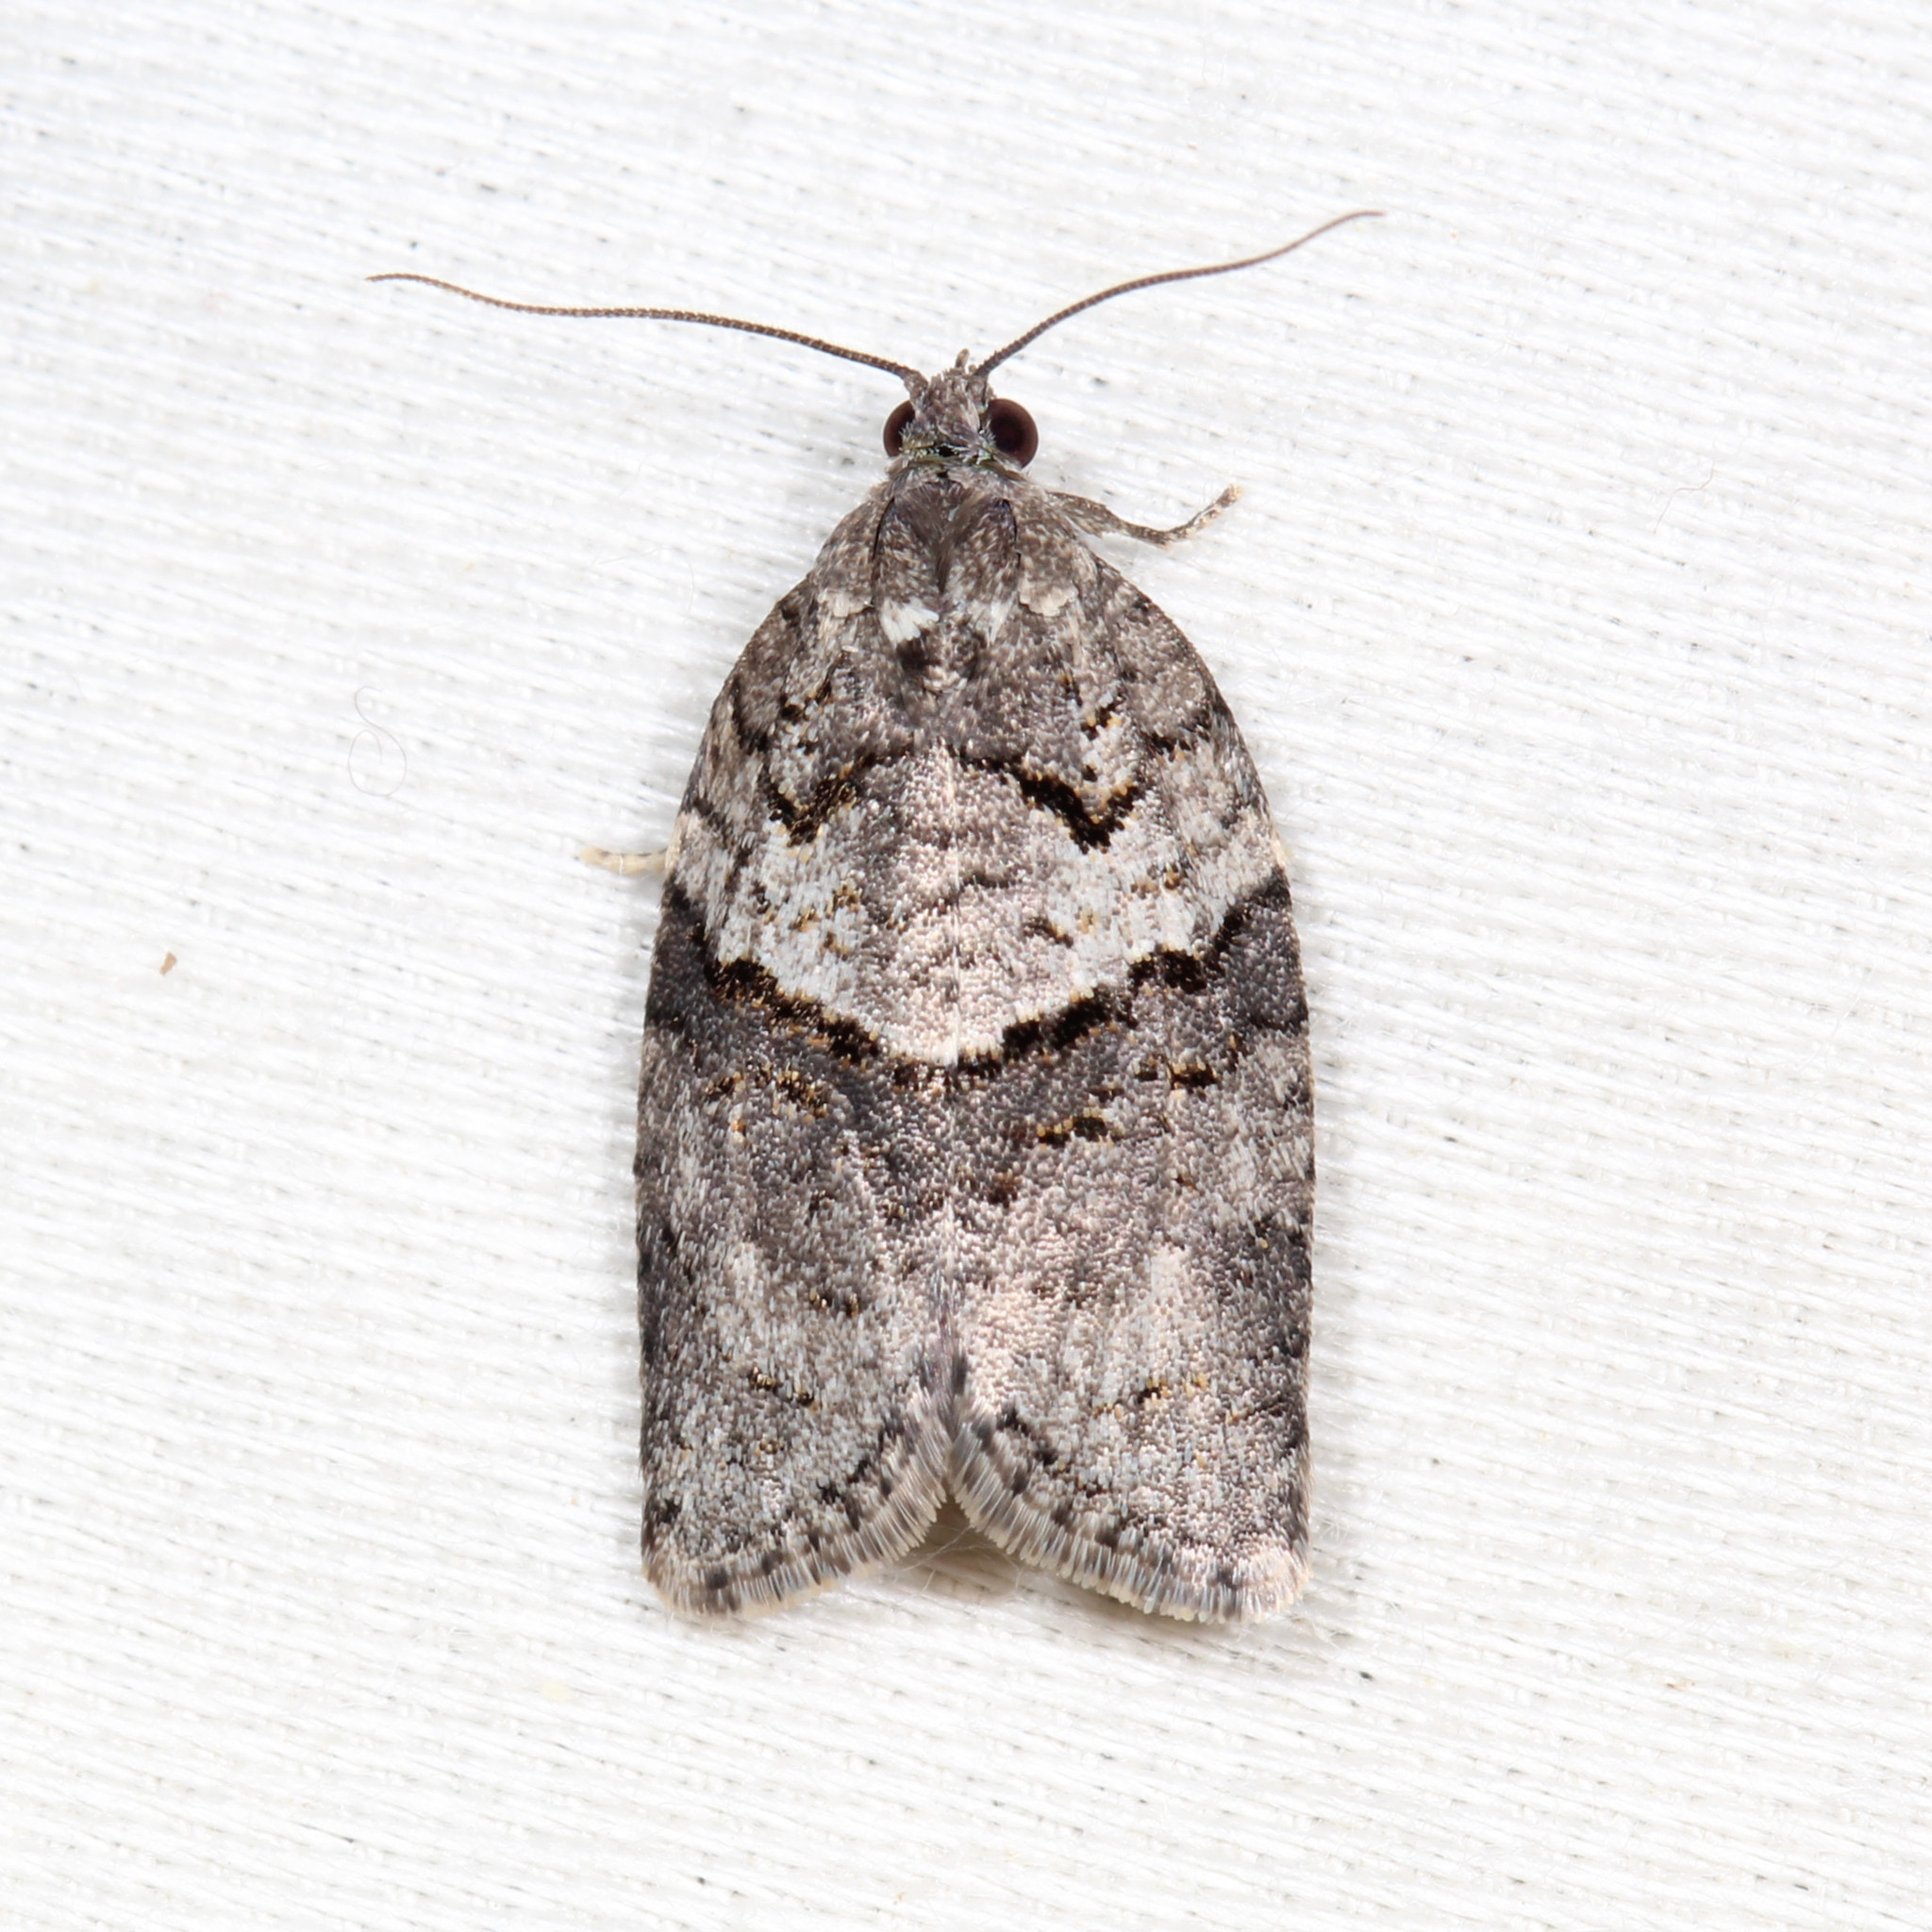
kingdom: Animalia
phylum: Arthropoda
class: Insecta
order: Lepidoptera
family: Tortricidae
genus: Syndemis
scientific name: Syndemis afflictana
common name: Gray leafroller moth
